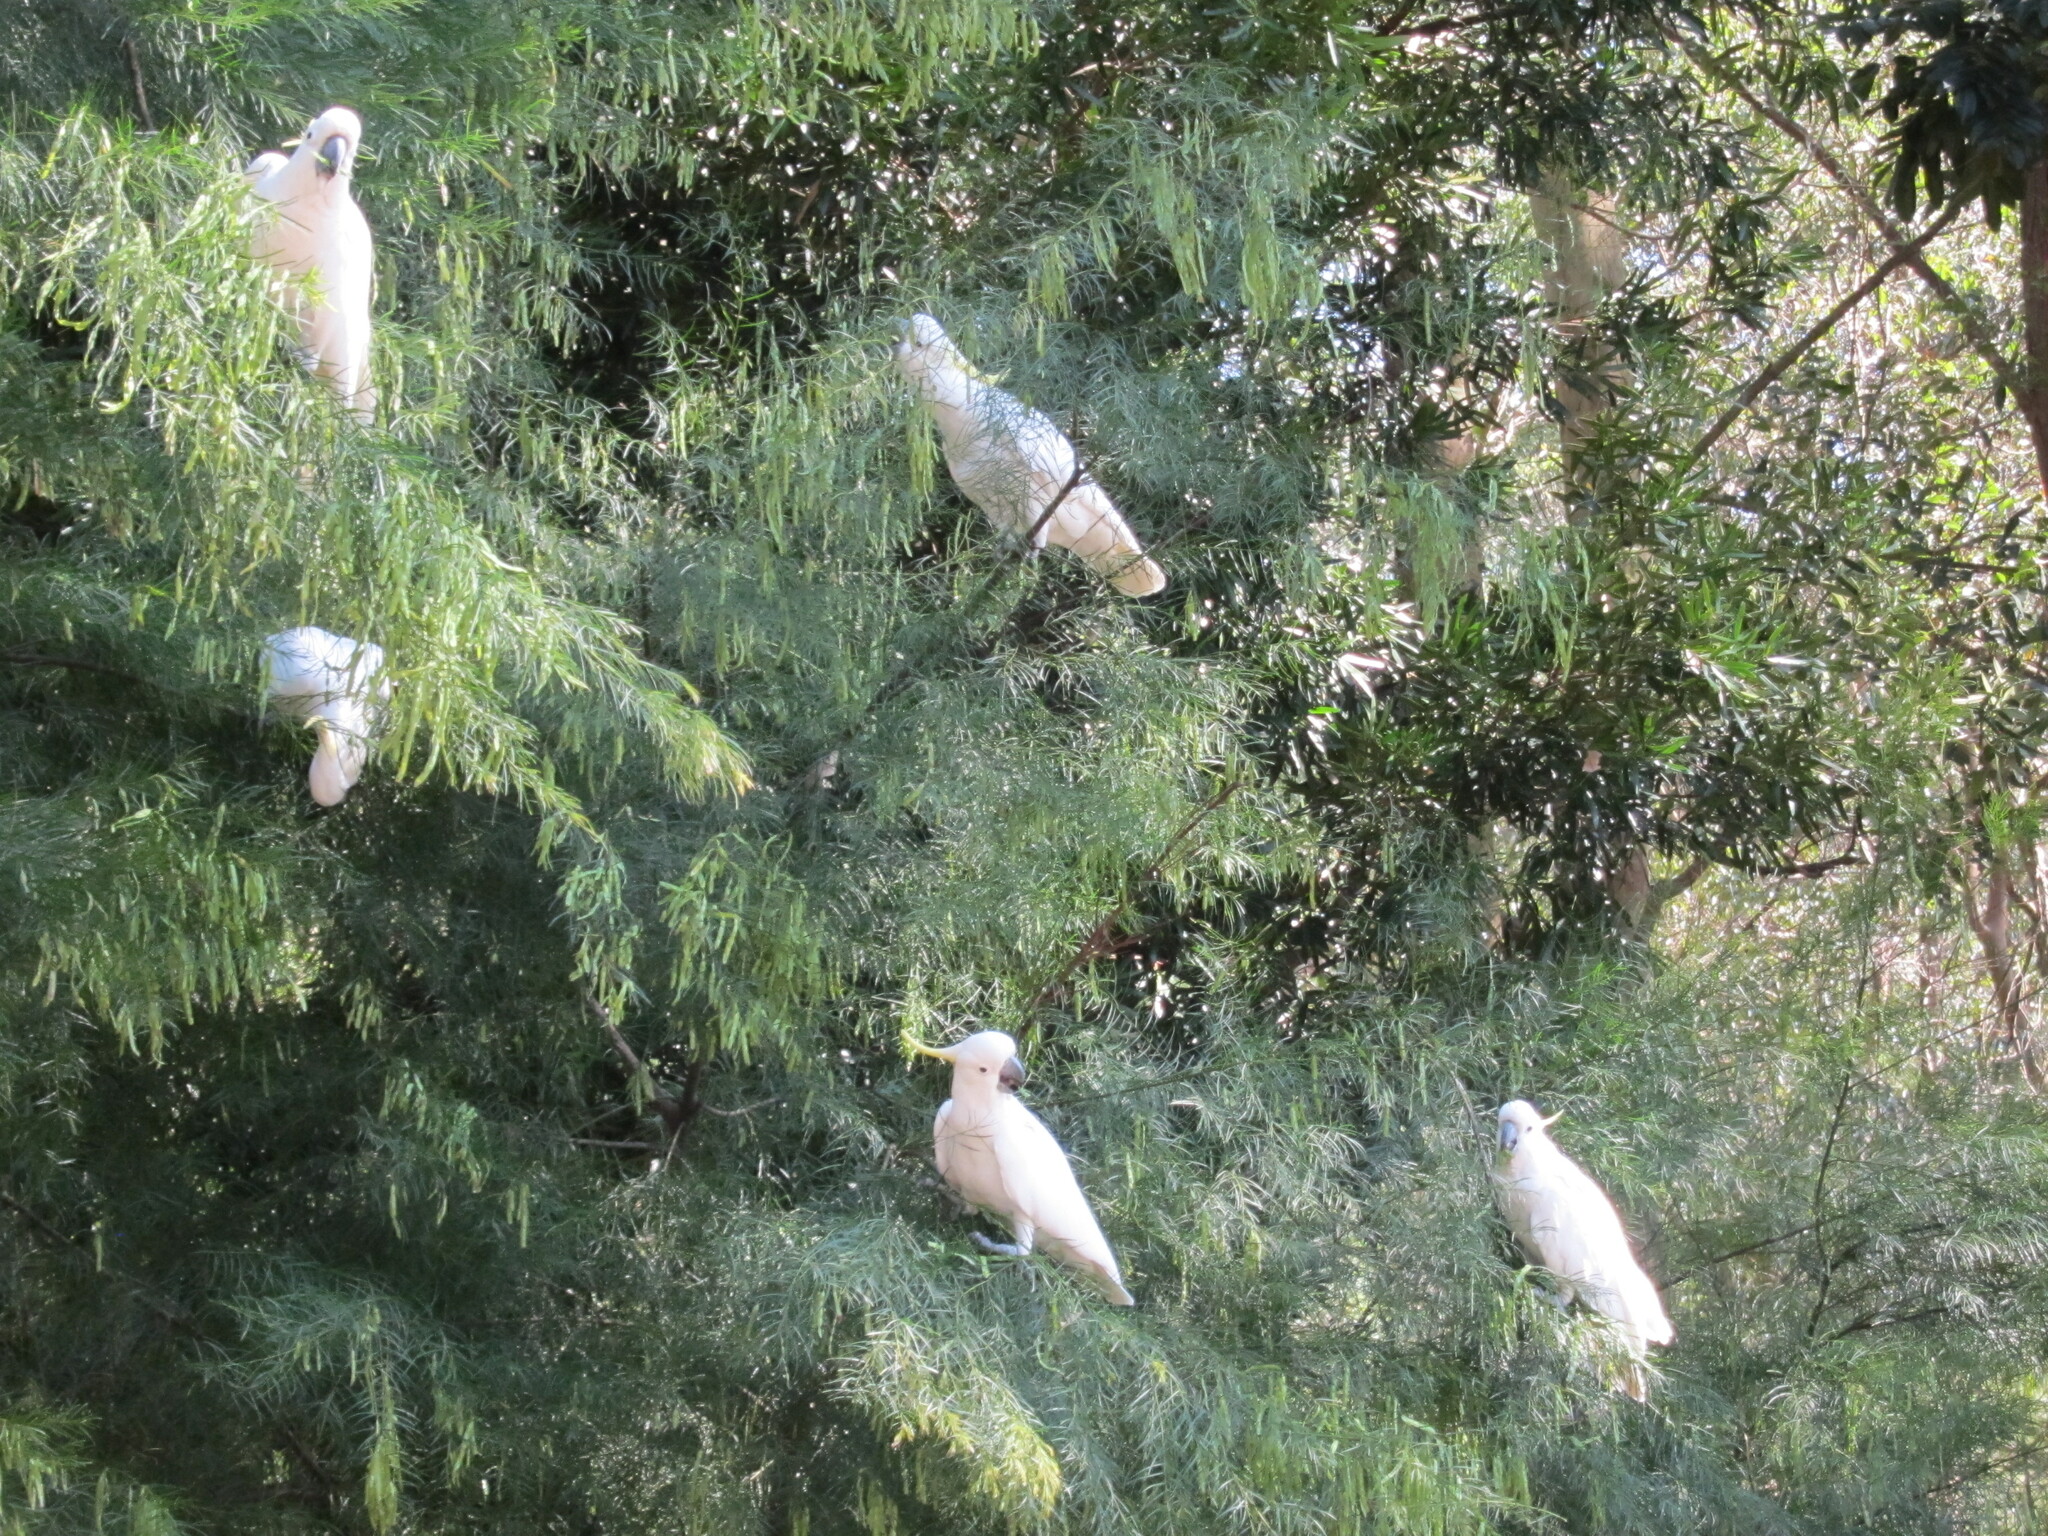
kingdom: Animalia
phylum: Chordata
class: Aves
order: Psittaciformes
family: Psittacidae
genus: Cacatua
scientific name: Cacatua galerita
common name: Sulphur-crested cockatoo
